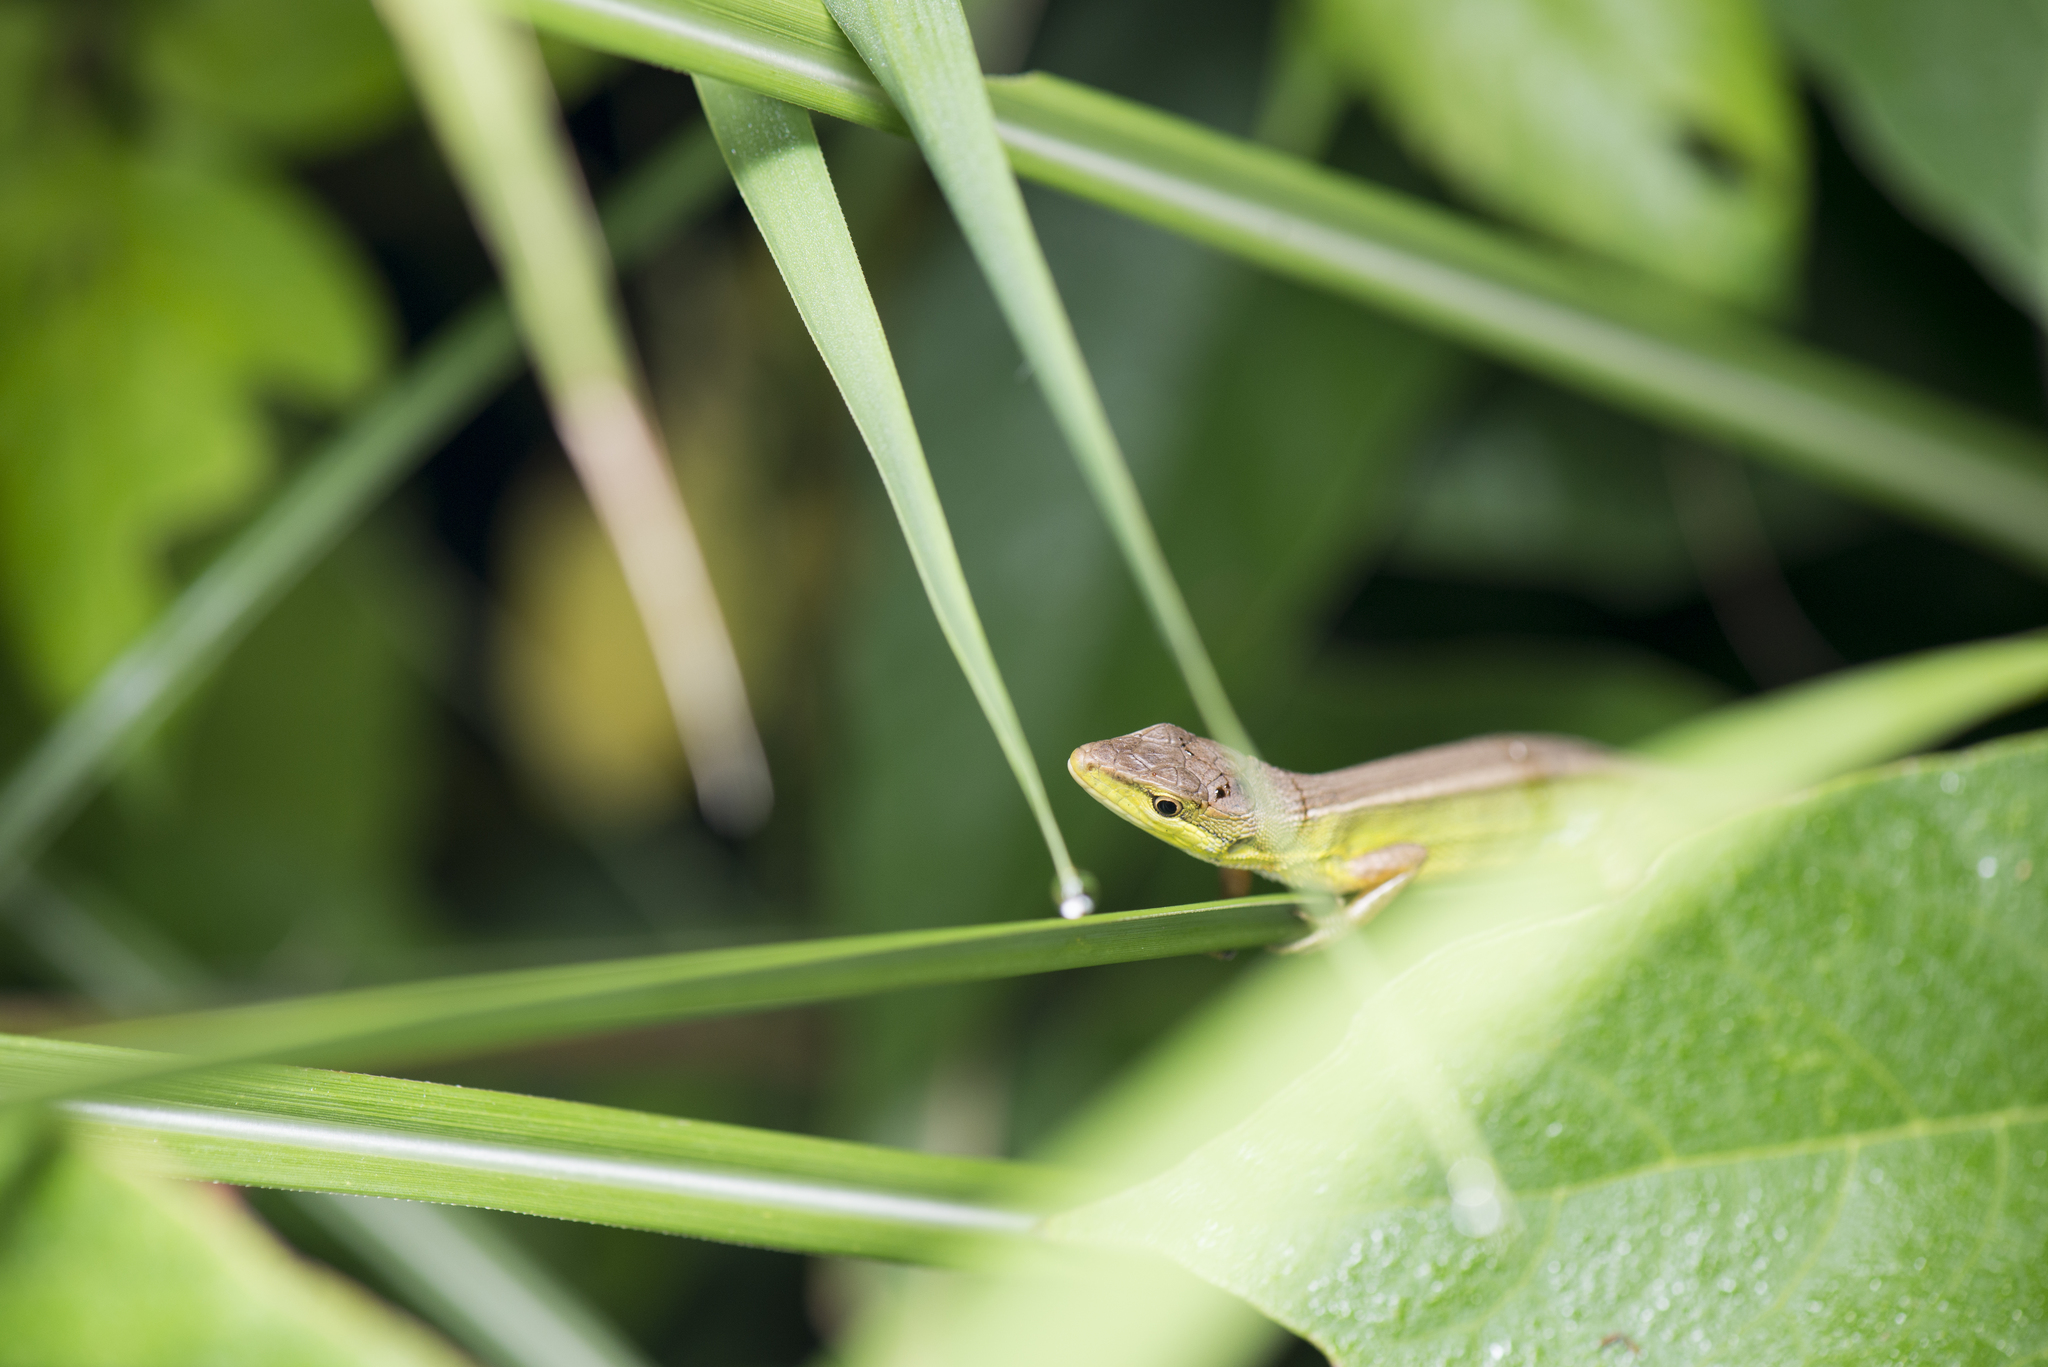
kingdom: Animalia
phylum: Chordata
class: Squamata
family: Lacertidae
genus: Takydromus
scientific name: Takydromus stejnegeri
